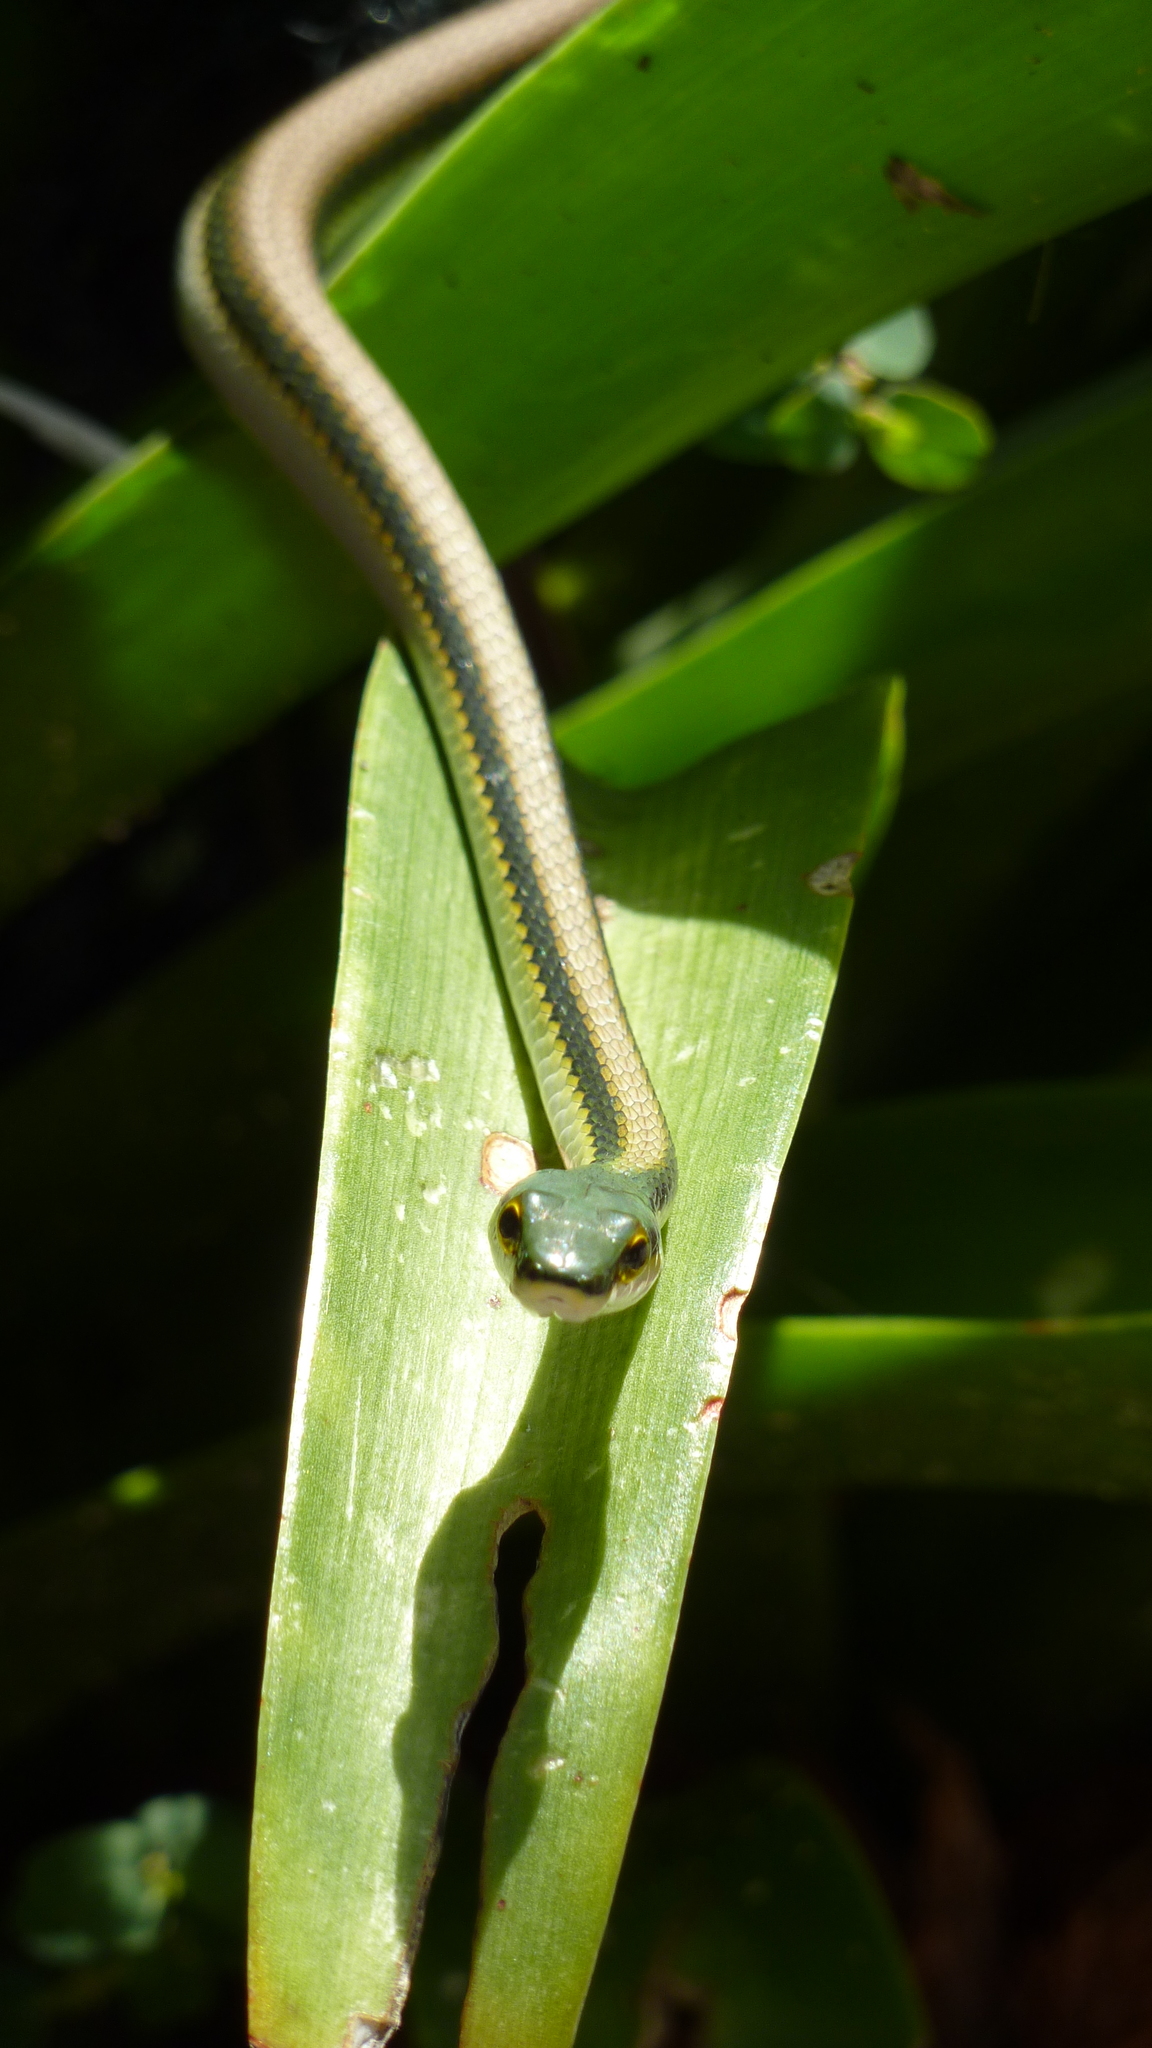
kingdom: Animalia
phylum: Chordata
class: Squamata
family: Colubridae
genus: Leptophis
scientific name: Leptophis mexicanus
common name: Mexican parrot snake
